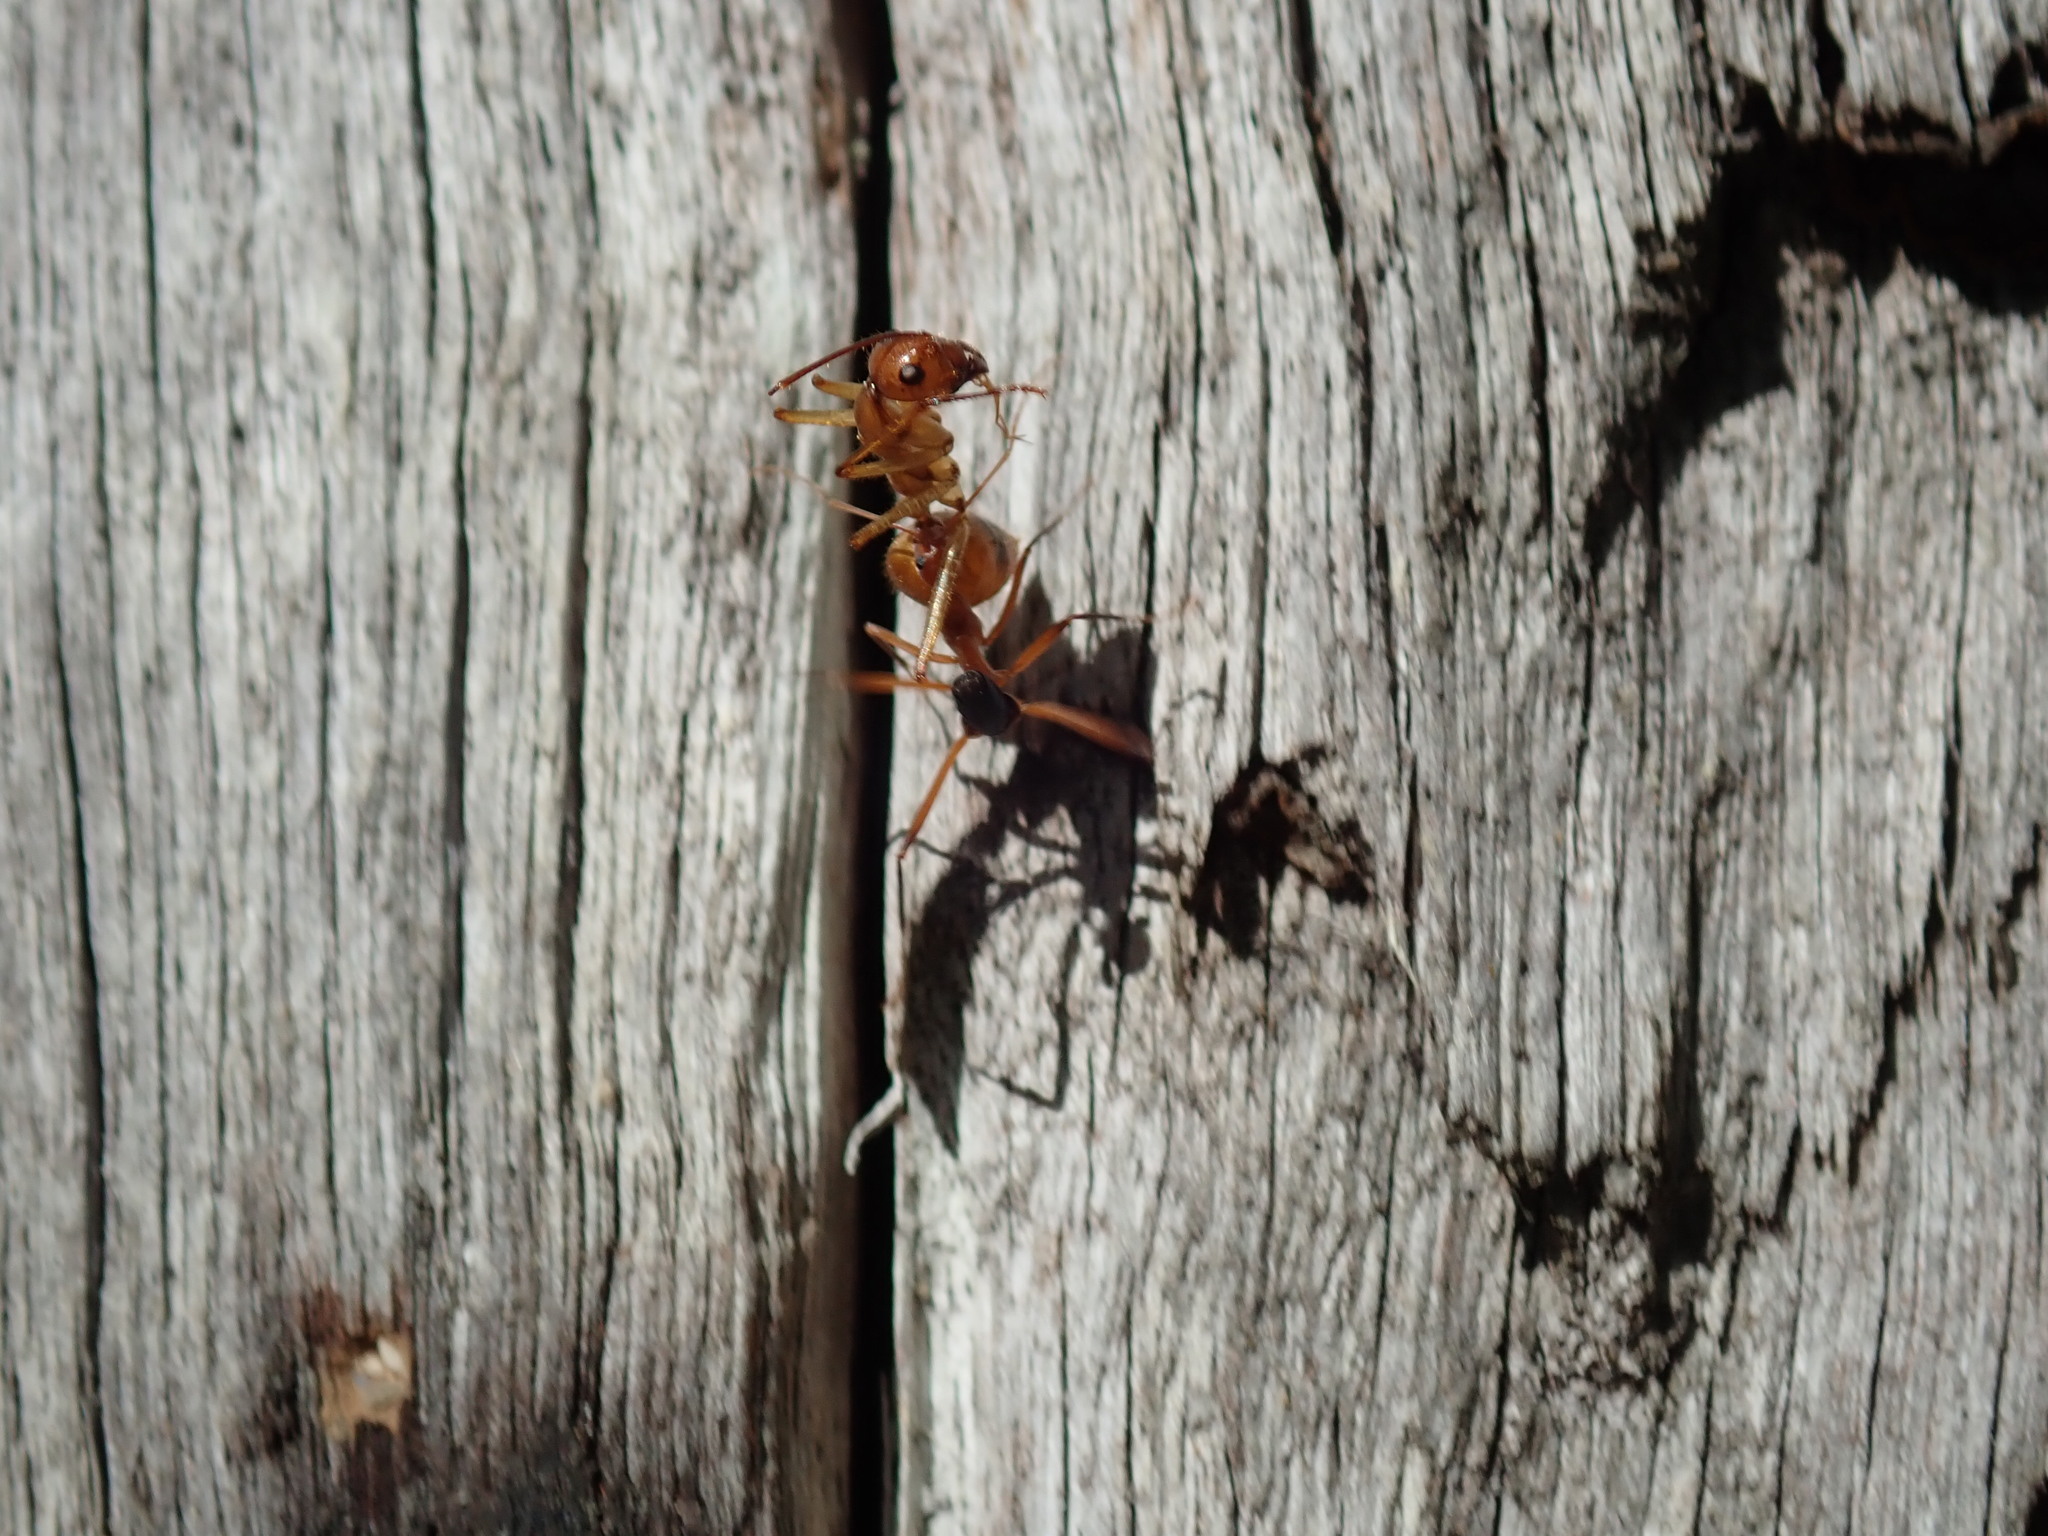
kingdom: Animalia
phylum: Arthropoda
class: Insecta
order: Hymenoptera
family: Formicidae
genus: Notostigma
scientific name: Notostigma foreli
